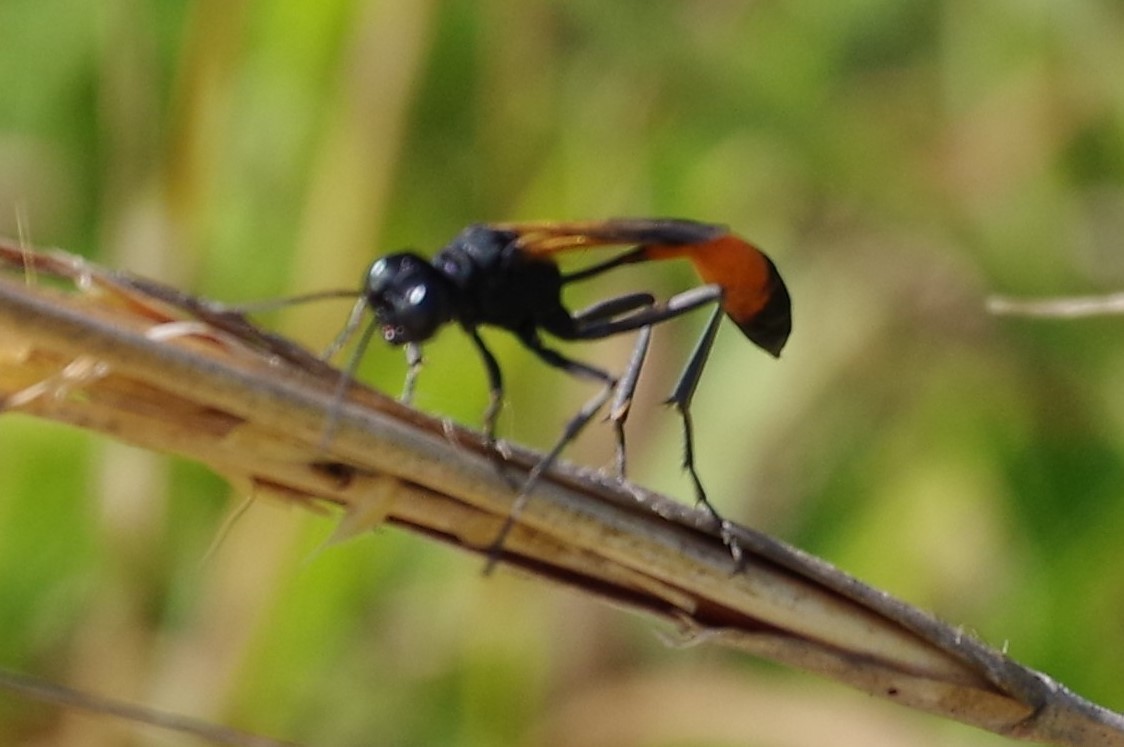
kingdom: Animalia
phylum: Arthropoda
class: Insecta
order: Hymenoptera
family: Sphecidae
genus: Ammophila
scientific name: Ammophila pictipennis
